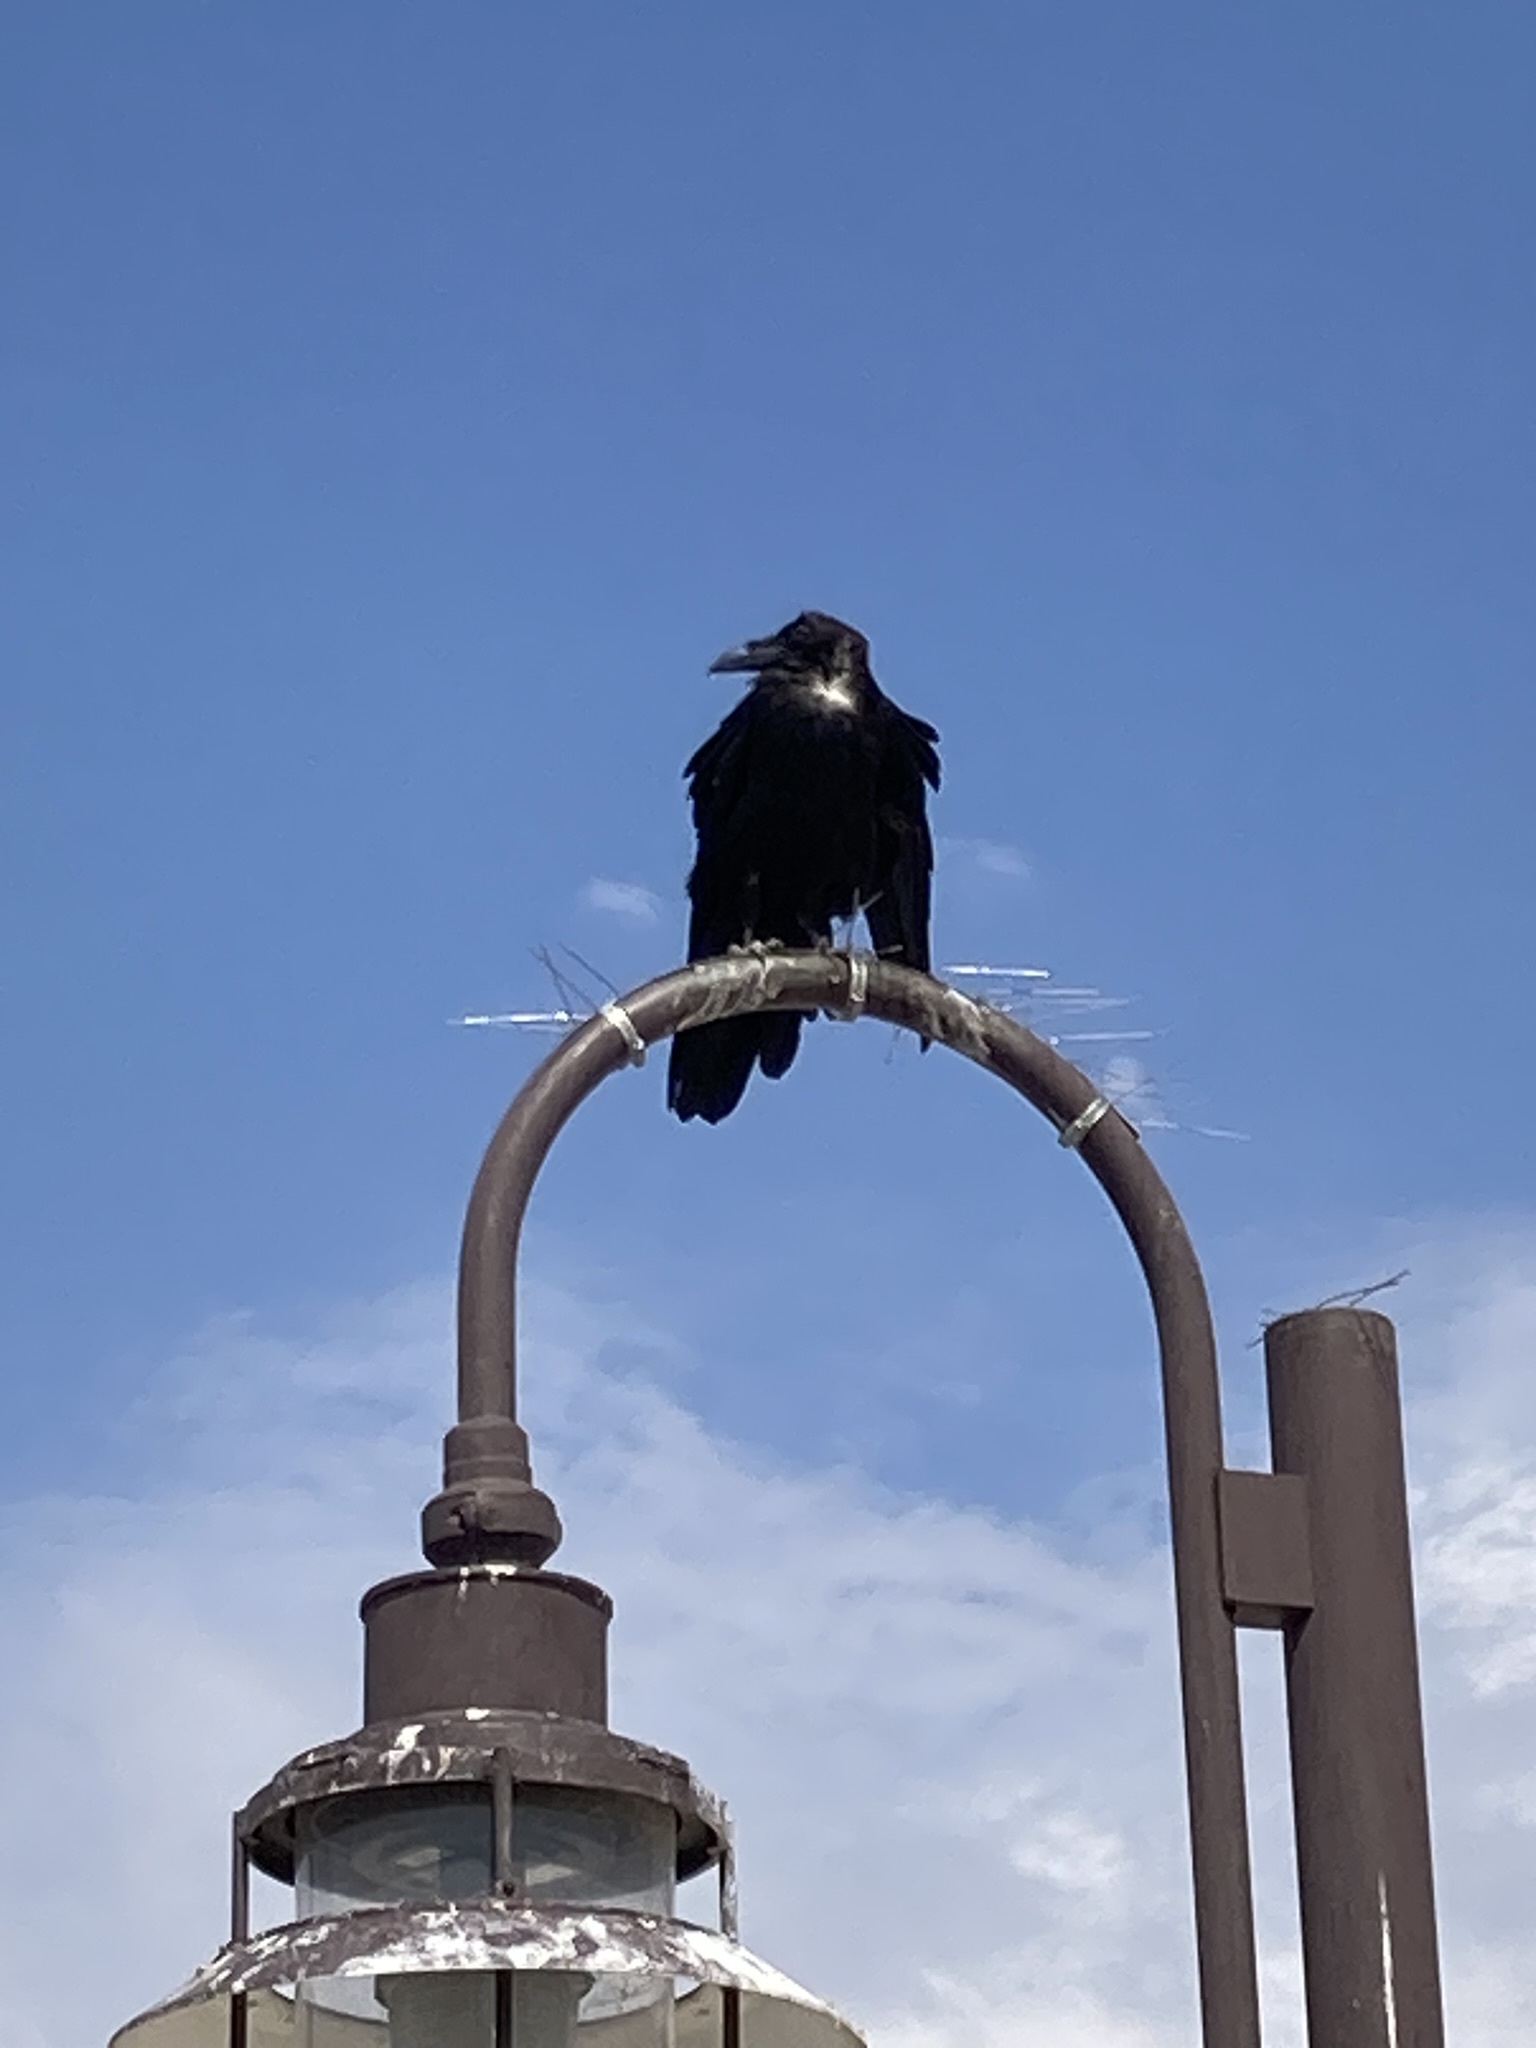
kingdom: Animalia
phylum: Chordata
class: Aves
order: Passeriformes
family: Corvidae
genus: Corvus
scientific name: Corvus corax
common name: Common raven
